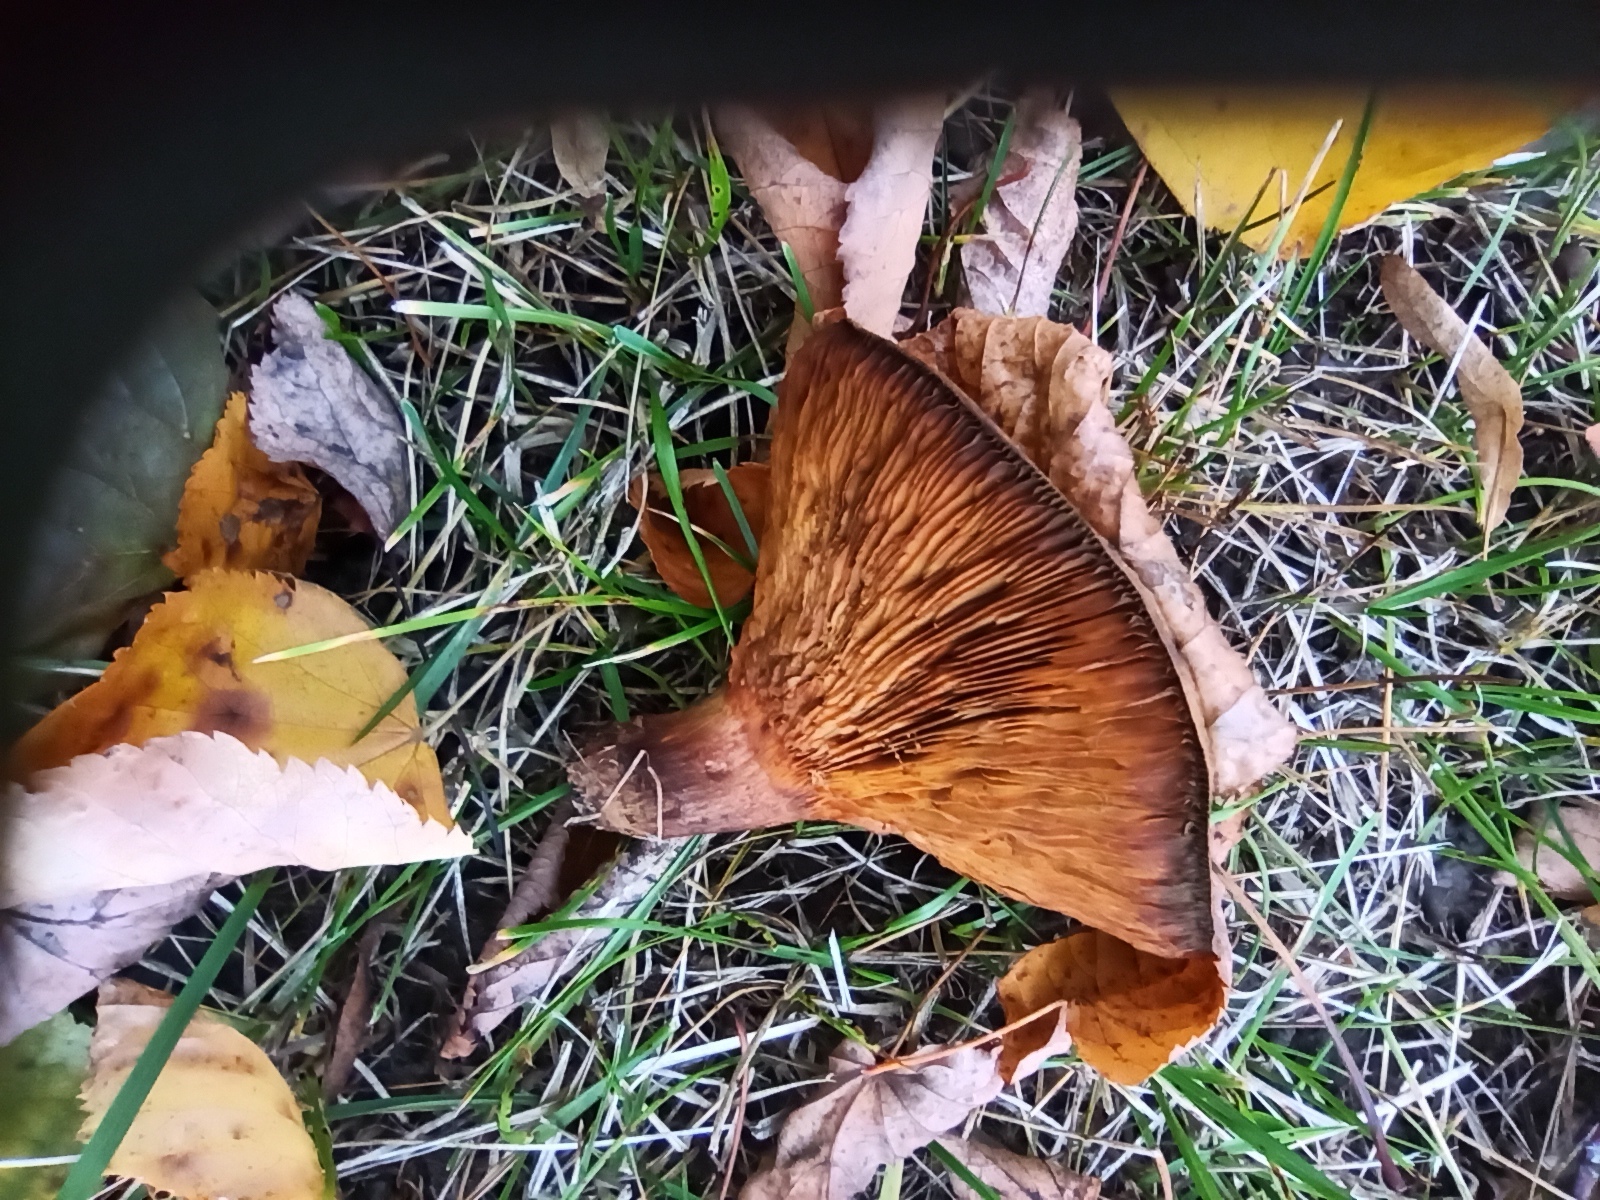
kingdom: Fungi
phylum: Basidiomycota
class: Agaricomycetes
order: Boletales
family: Paxillaceae
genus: Paxillus
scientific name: Paxillus involutus
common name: Brown roll rim
